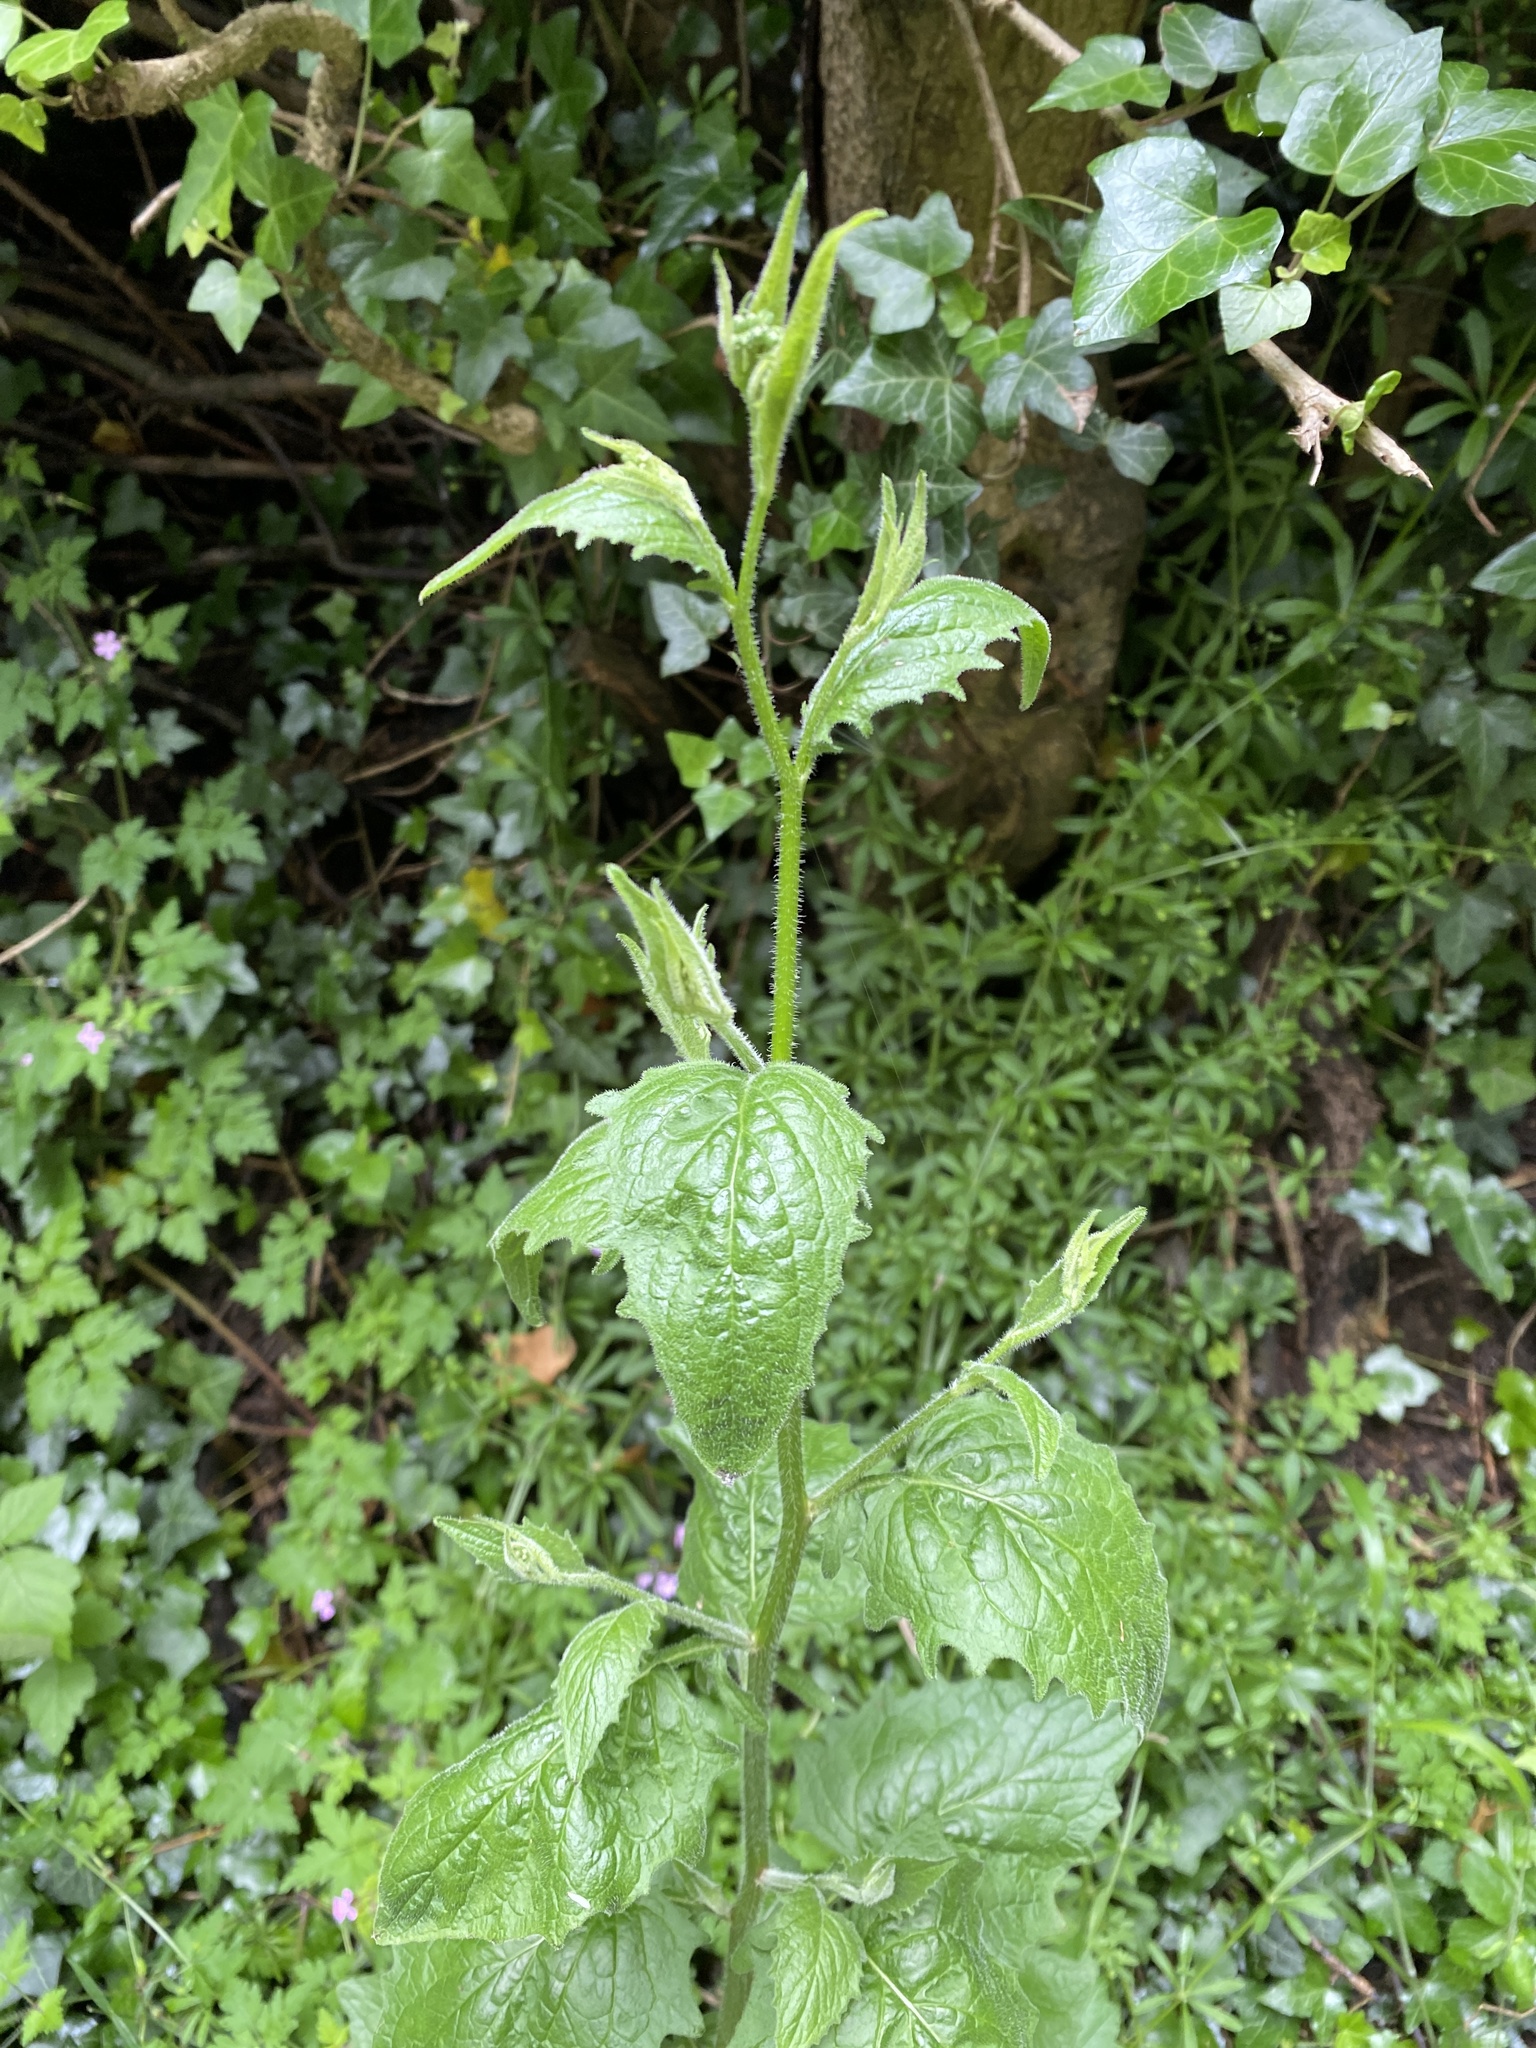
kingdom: Plantae
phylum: Tracheophyta
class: Magnoliopsida
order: Asterales
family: Asteraceae
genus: Lapsana
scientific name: Lapsana communis
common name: Nipplewort
